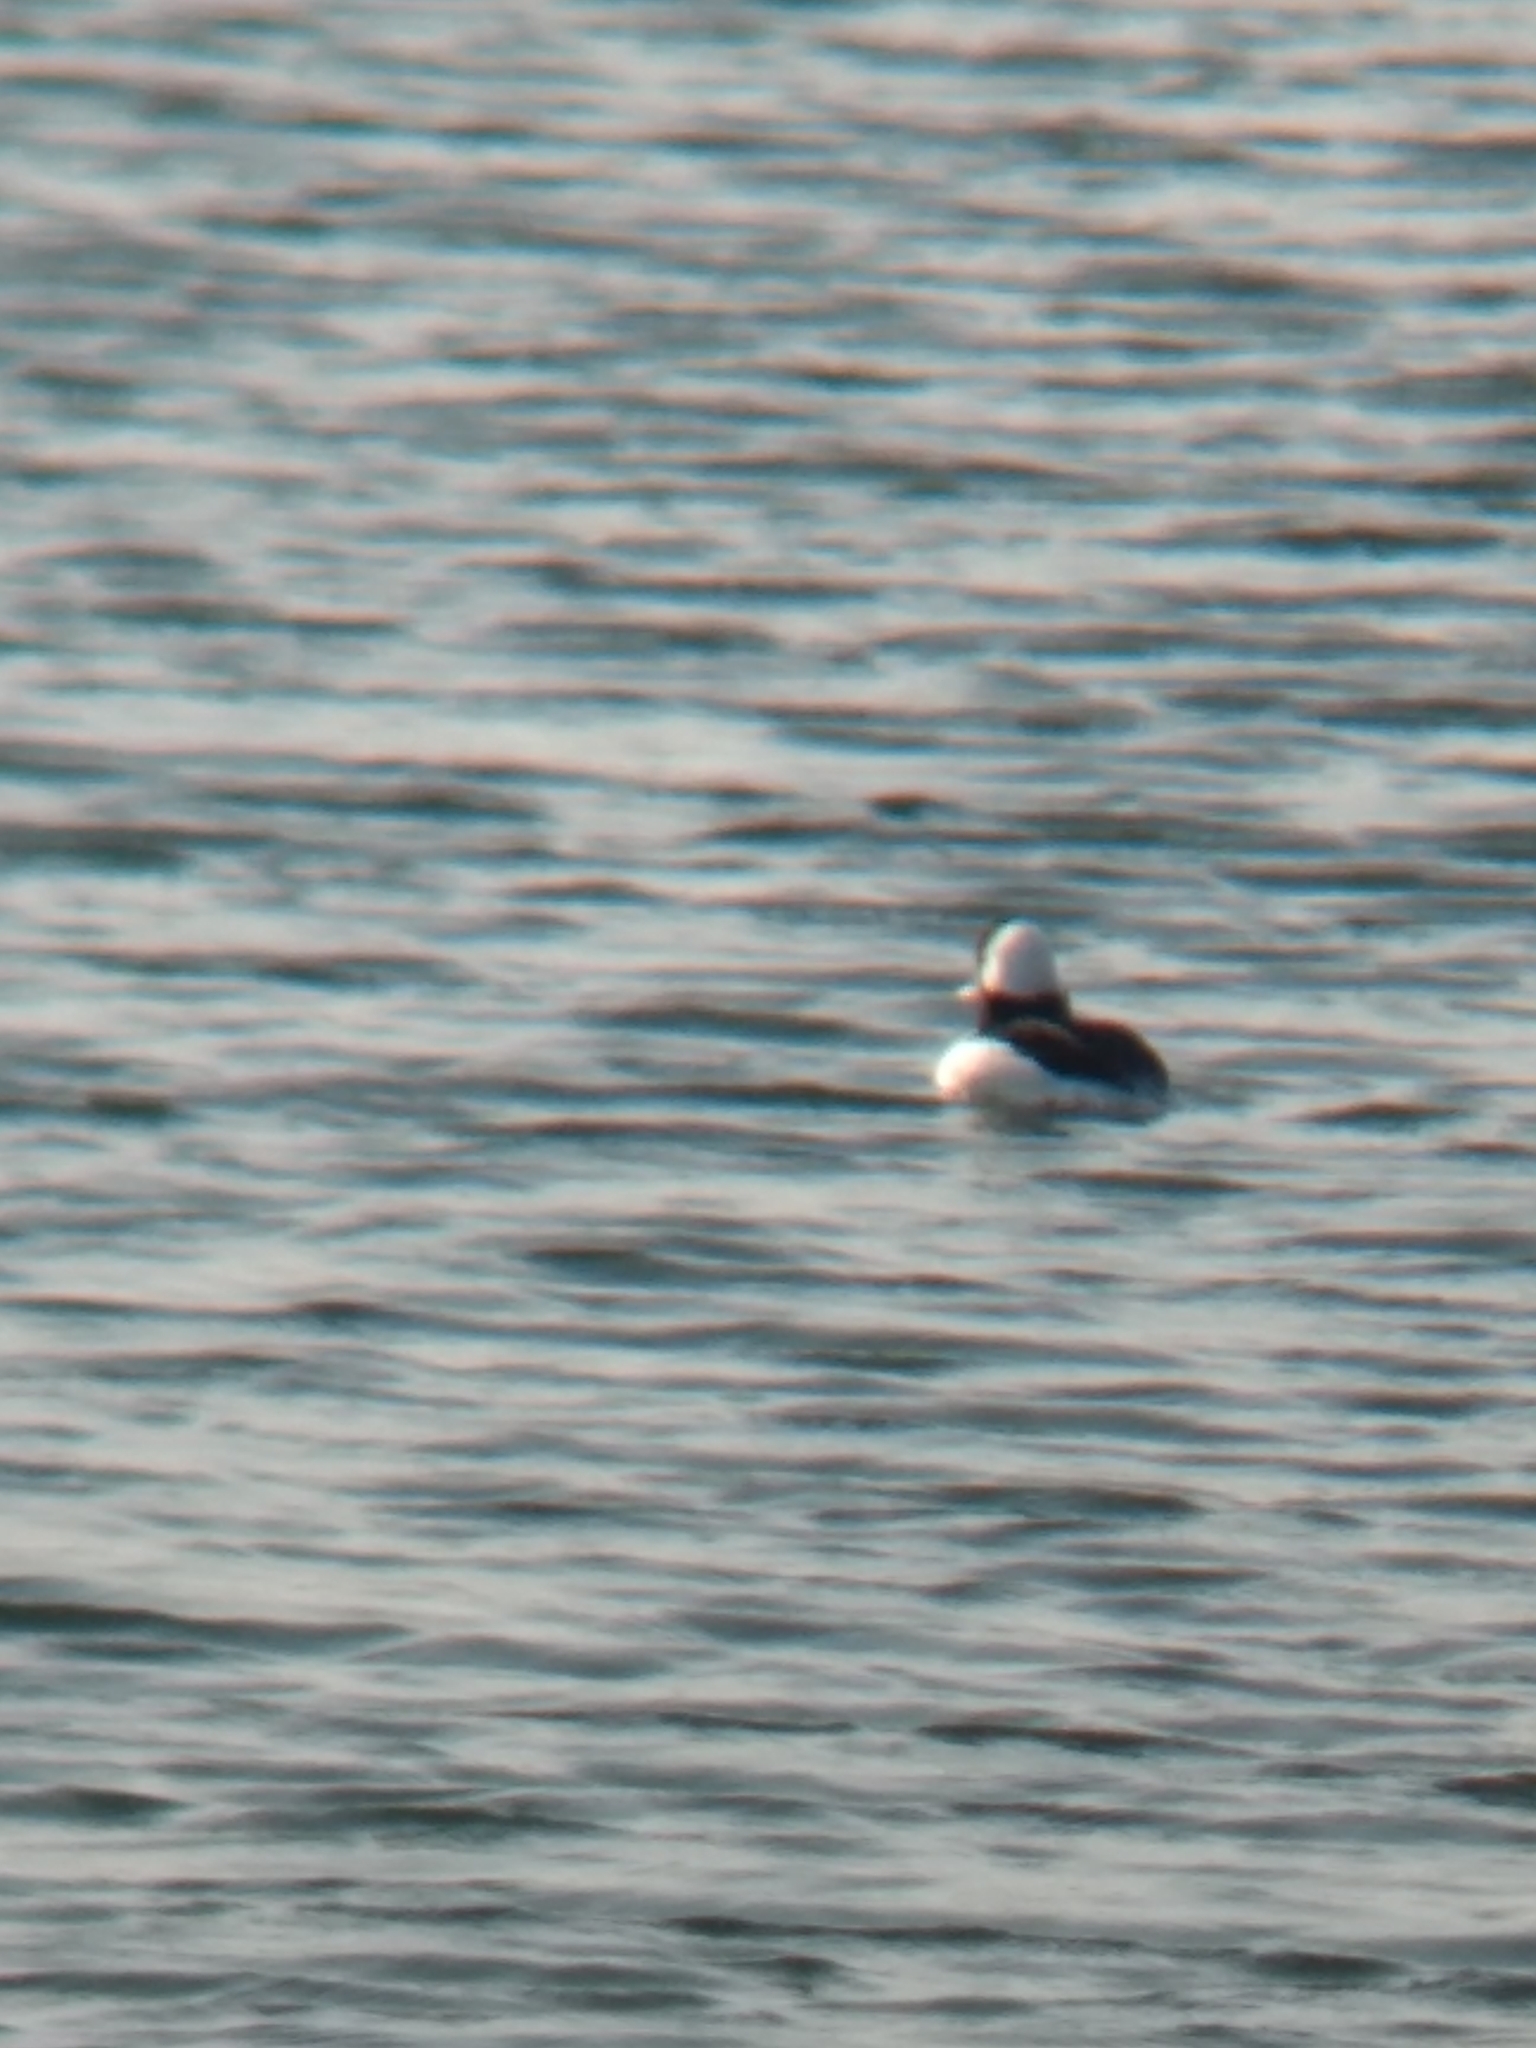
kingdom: Animalia
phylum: Chordata
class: Aves
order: Anseriformes
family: Anatidae
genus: Bucephala
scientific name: Bucephala albeola
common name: Bufflehead
